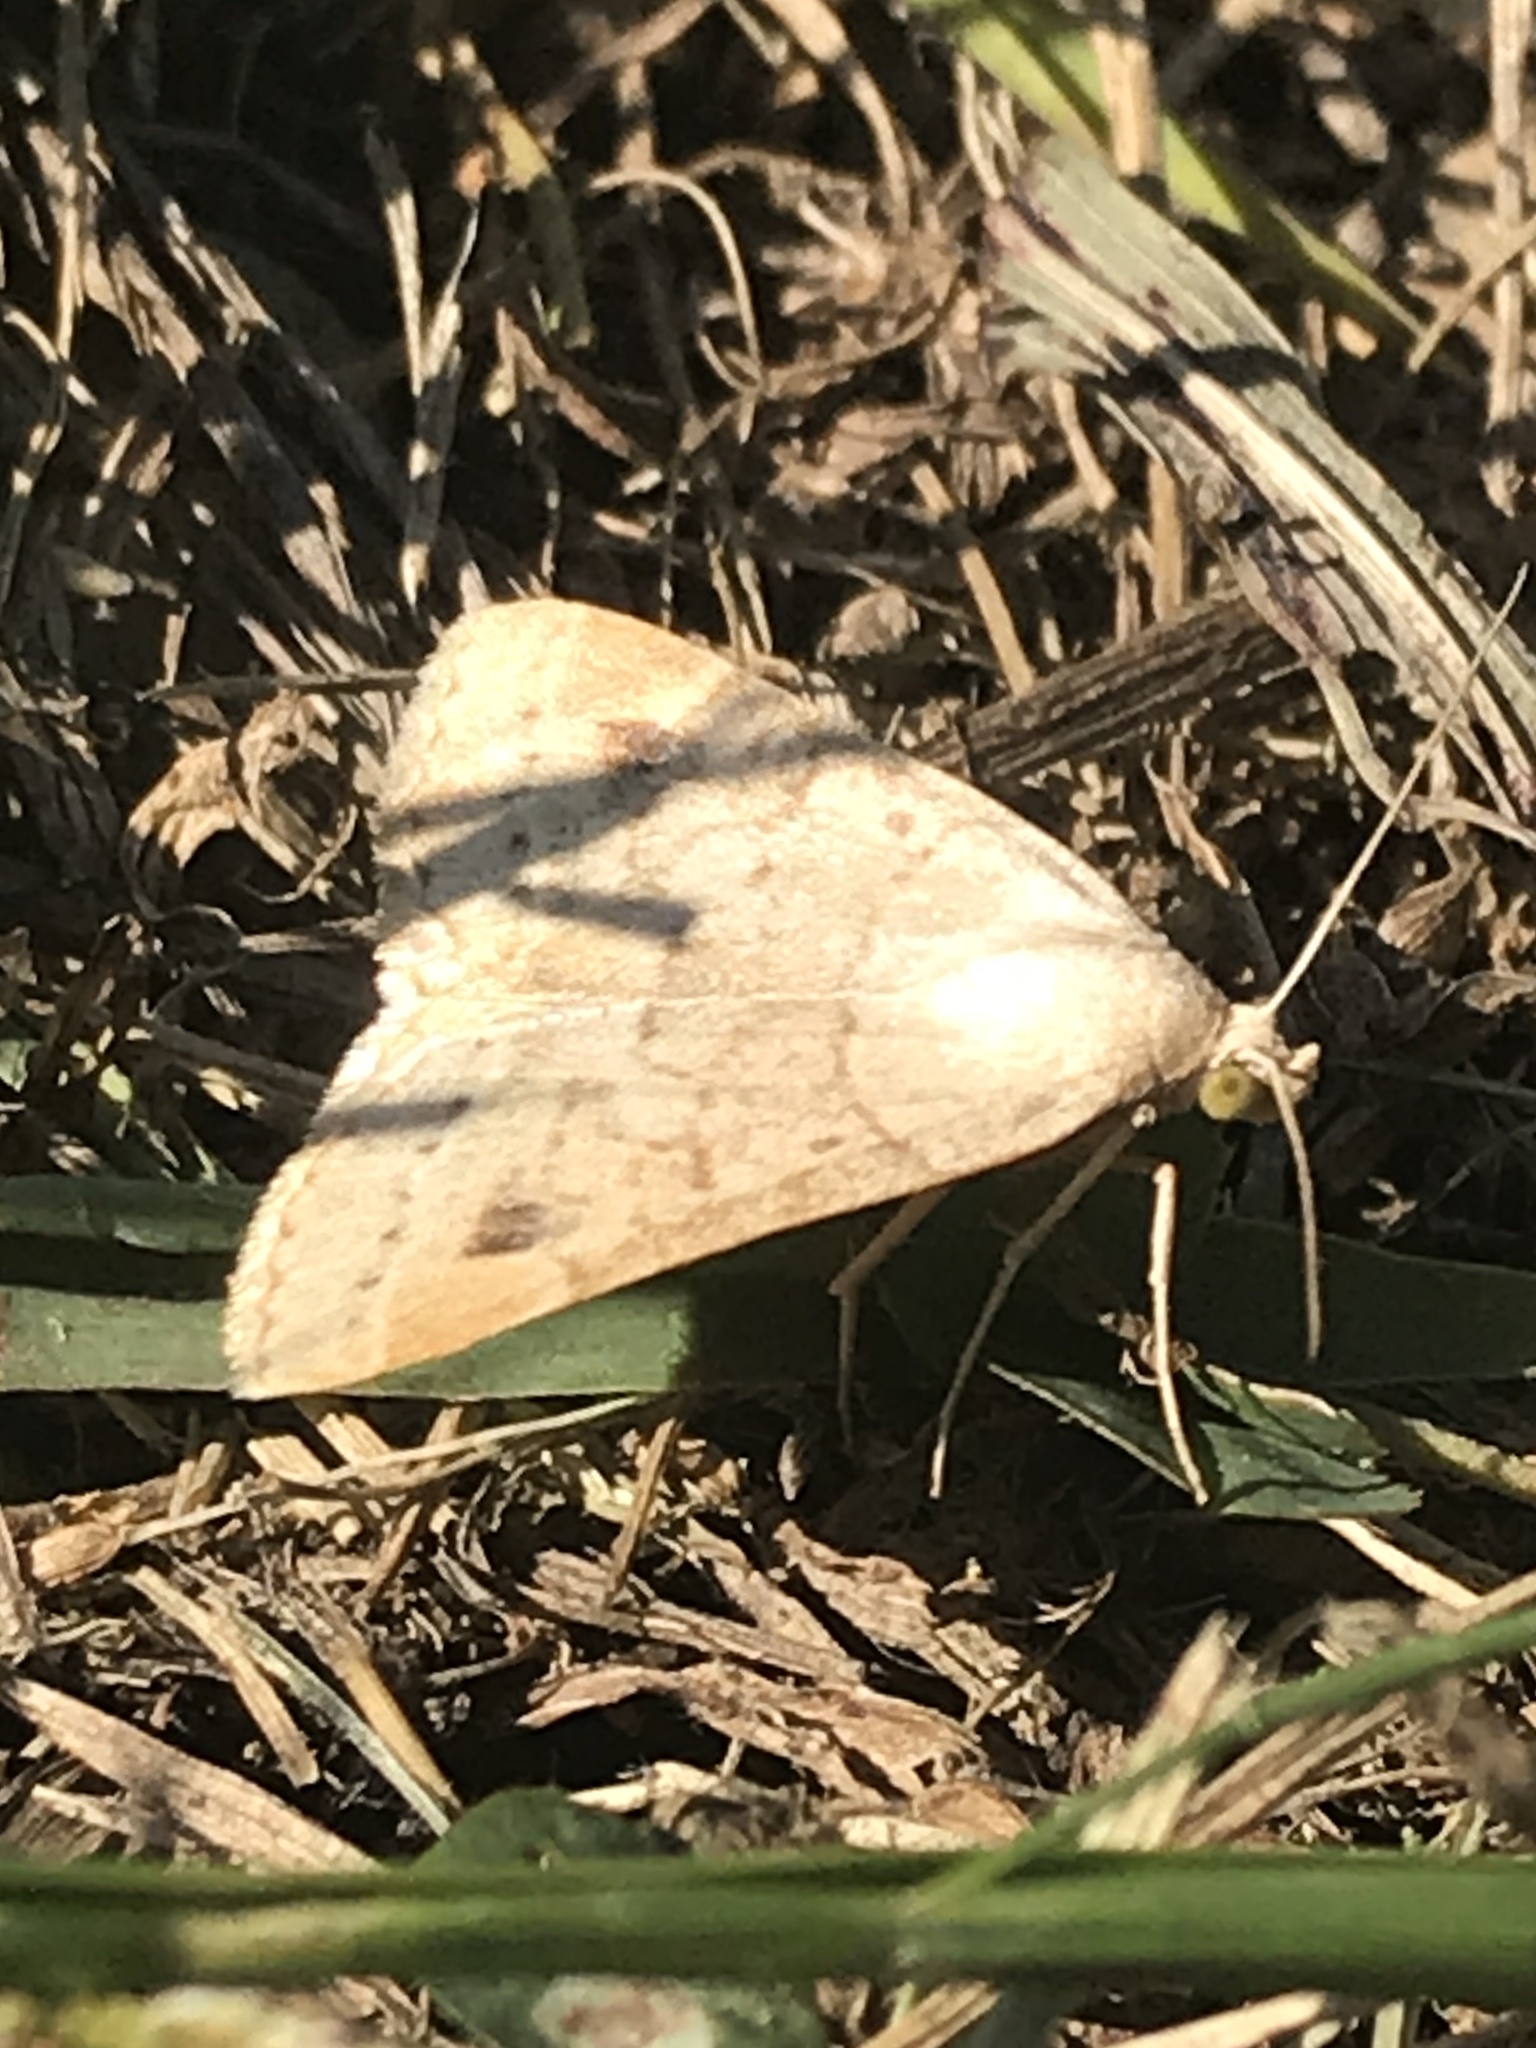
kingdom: Animalia
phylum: Arthropoda
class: Insecta
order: Lepidoptera
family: Erebidae
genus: Caenurgia
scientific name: Caenurgia chloropha
